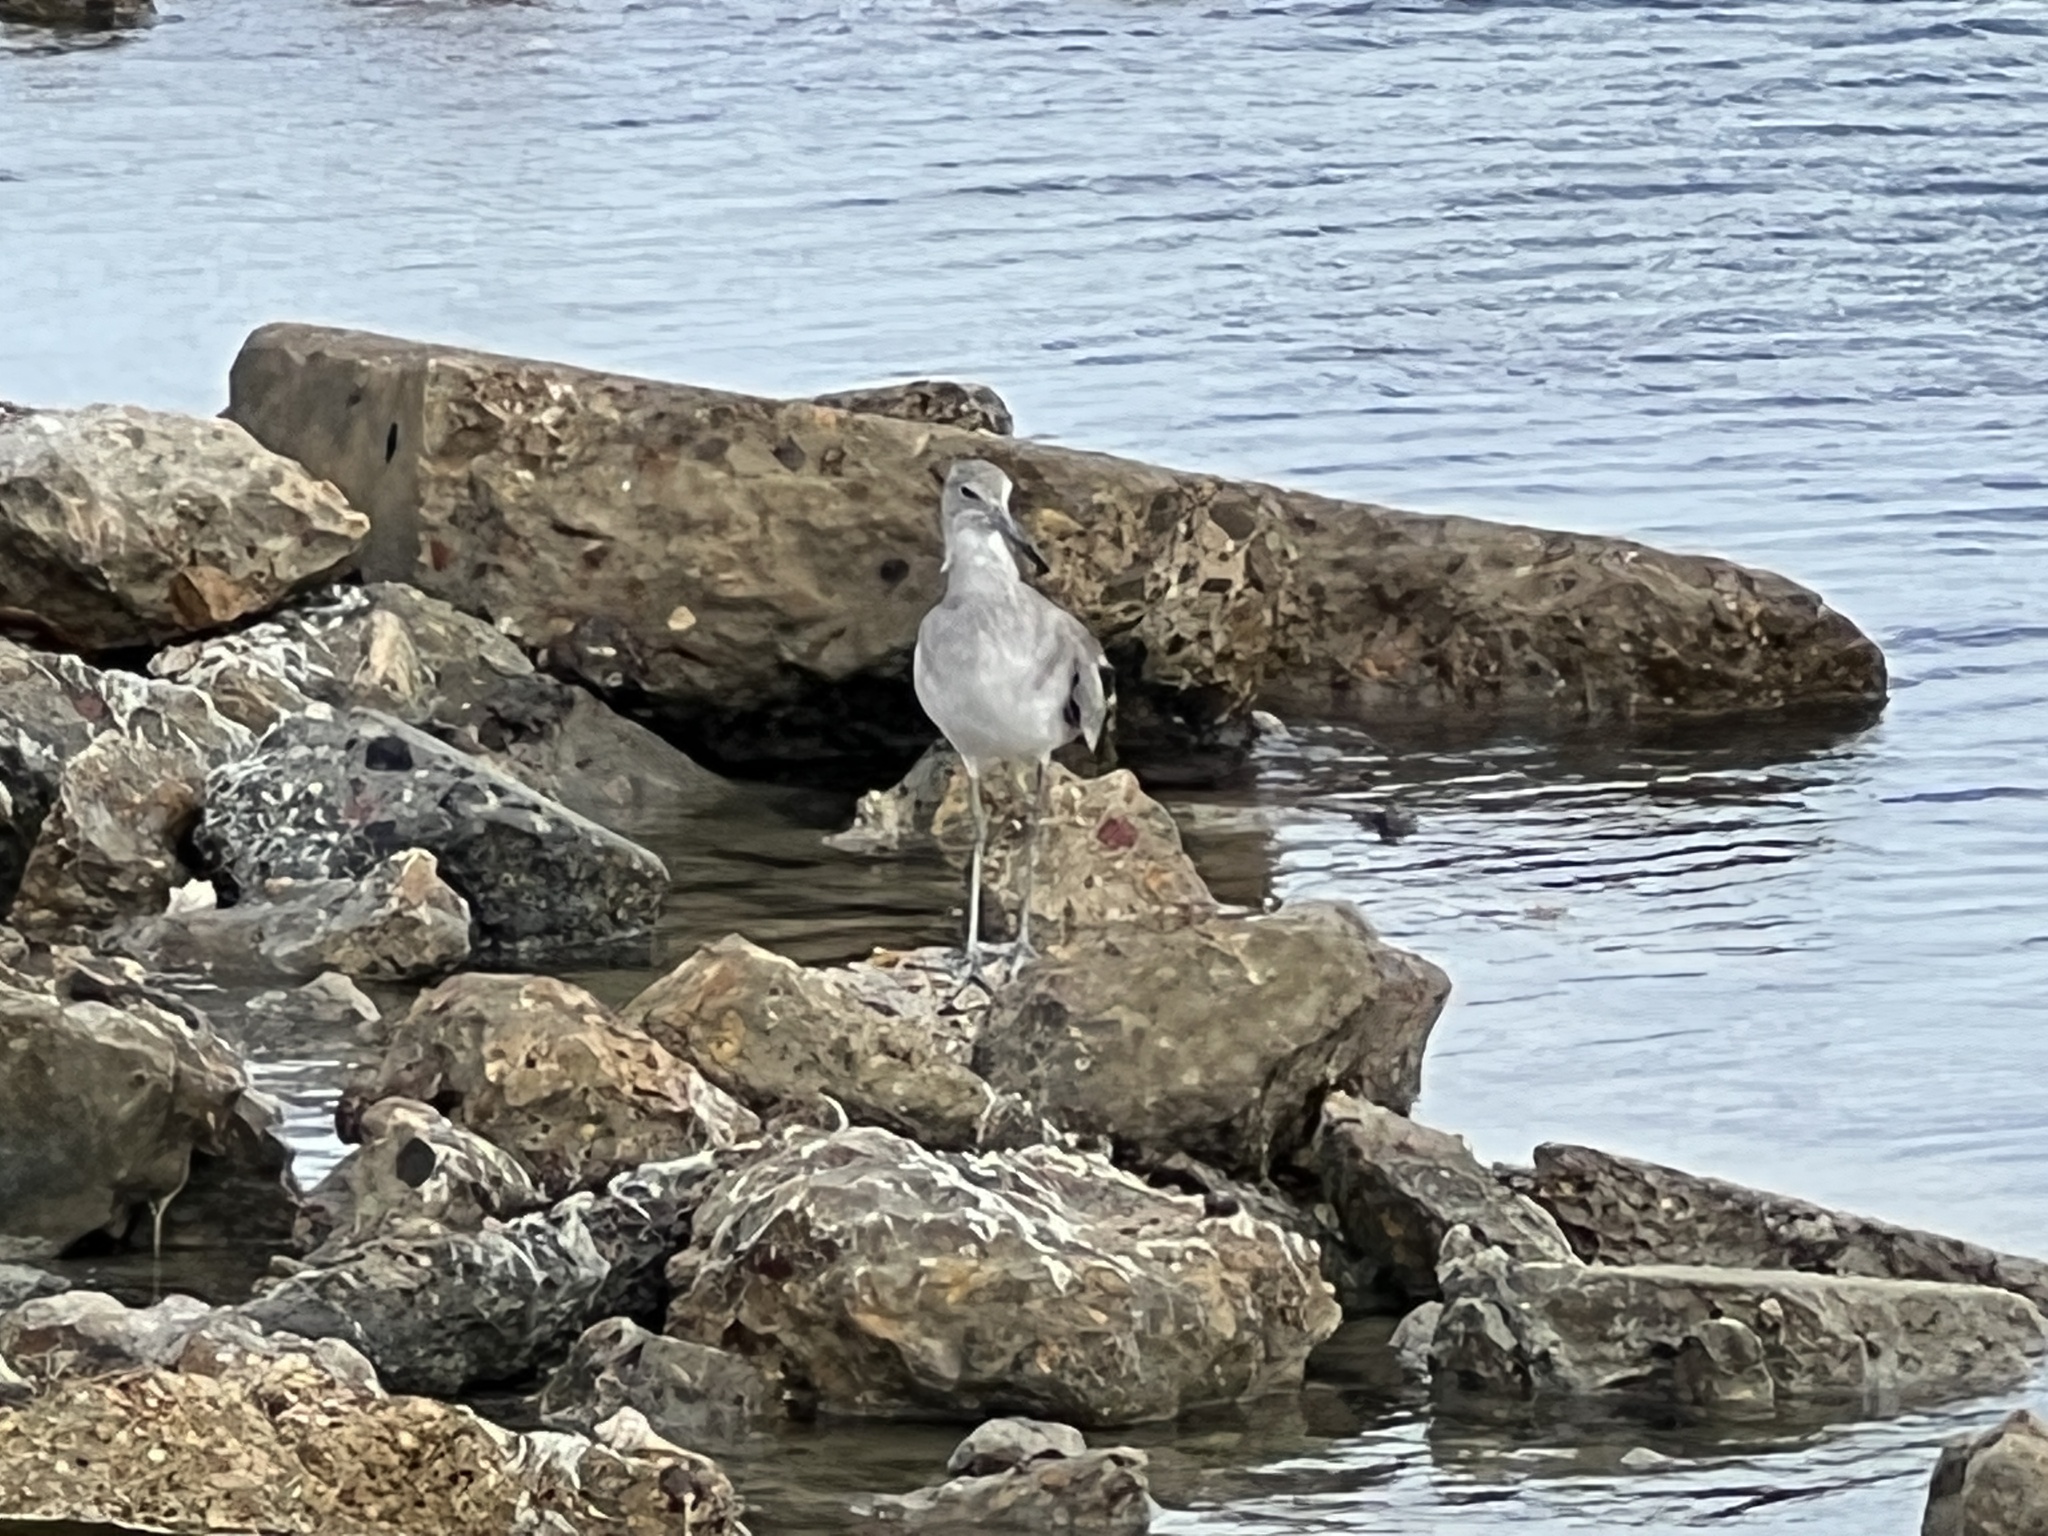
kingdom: Animalia
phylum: Chordata
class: Aves
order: Charadriiformes
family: Scolopacidae
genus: Tringa
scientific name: Tringa semipalmata
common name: Willet
